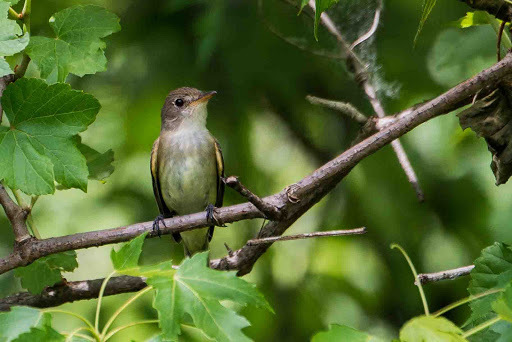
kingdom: Animalia
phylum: Chordata
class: Aves
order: Passeriformes
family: Tyrannidae
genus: Empidonax
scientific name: Empidonax
